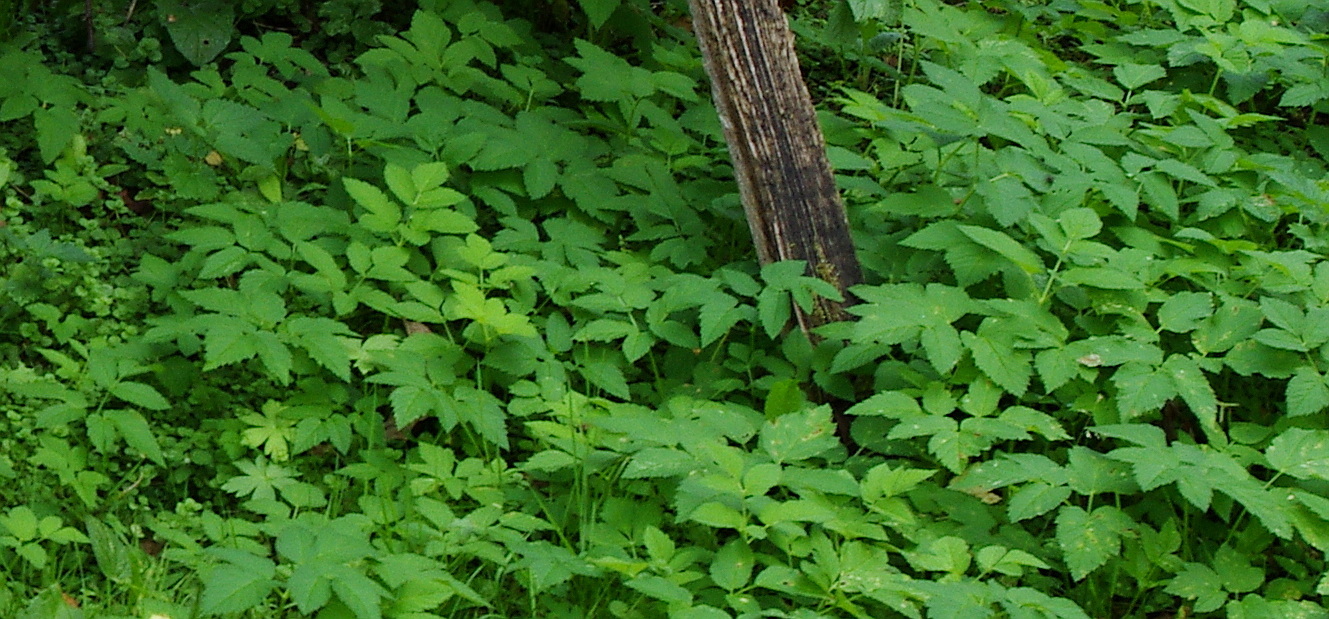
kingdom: Plantae
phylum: Tracheophyta
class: Magnoliopsida
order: Apiales
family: Apiaceae
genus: Aegopodium
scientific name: Aegopodium podagraria
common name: Ground-elder
